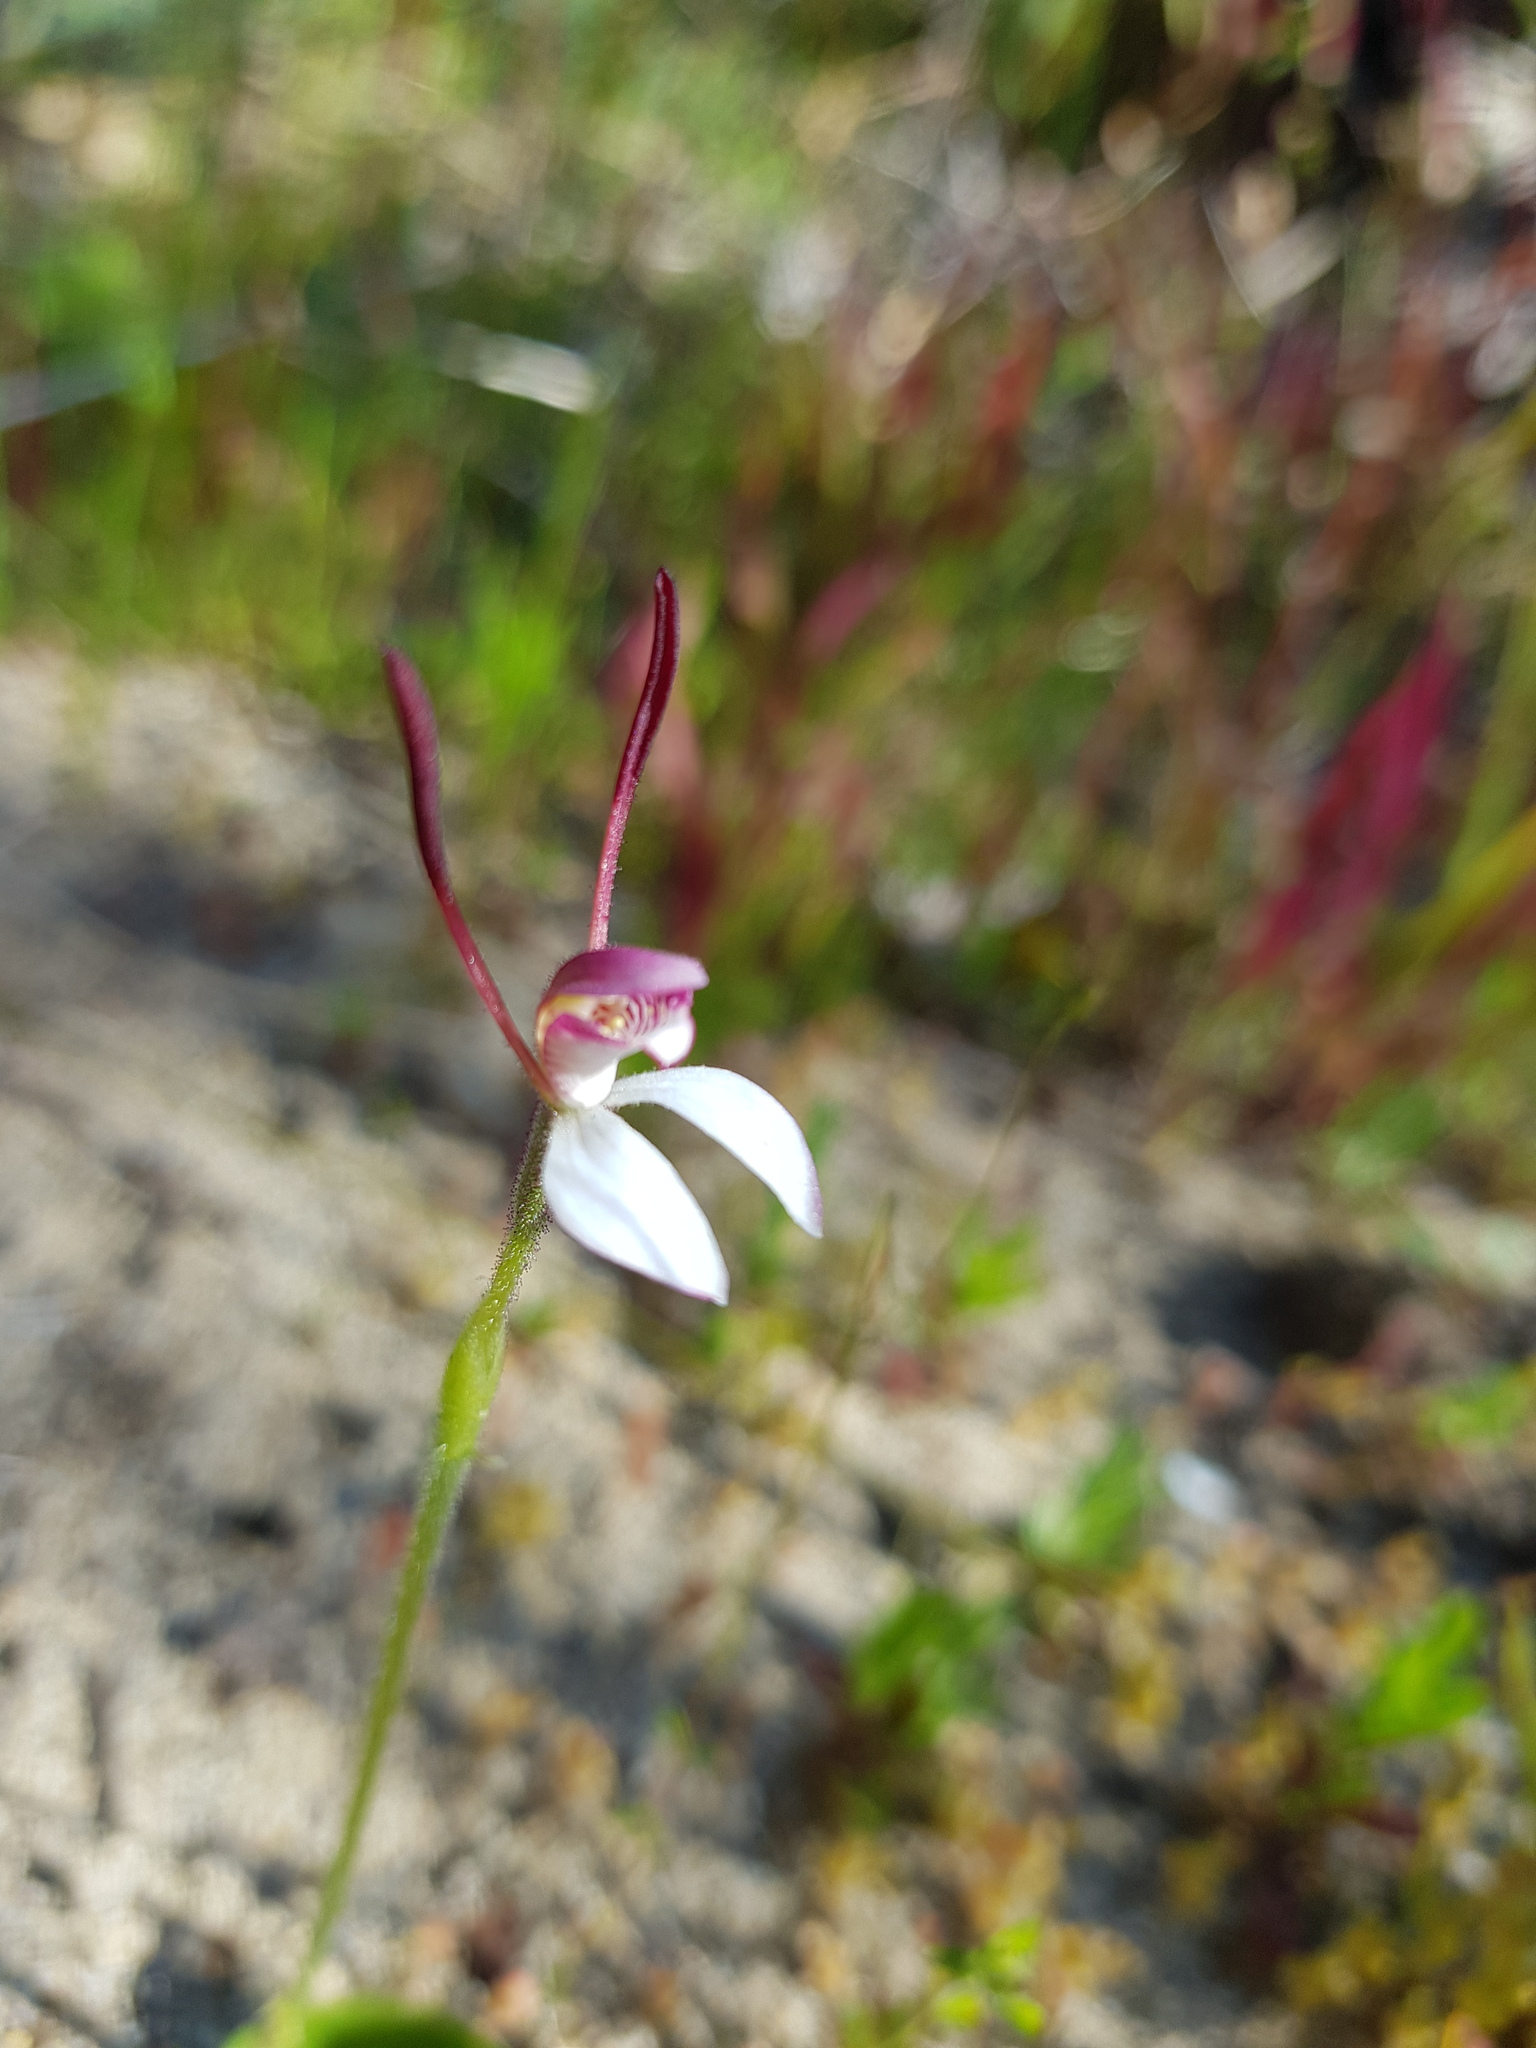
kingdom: Plantae
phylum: Tracheophyta
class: Liliopsida
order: Asparagales
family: Orchidaceae
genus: Leptoceras
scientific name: Leptoceras menziesii
